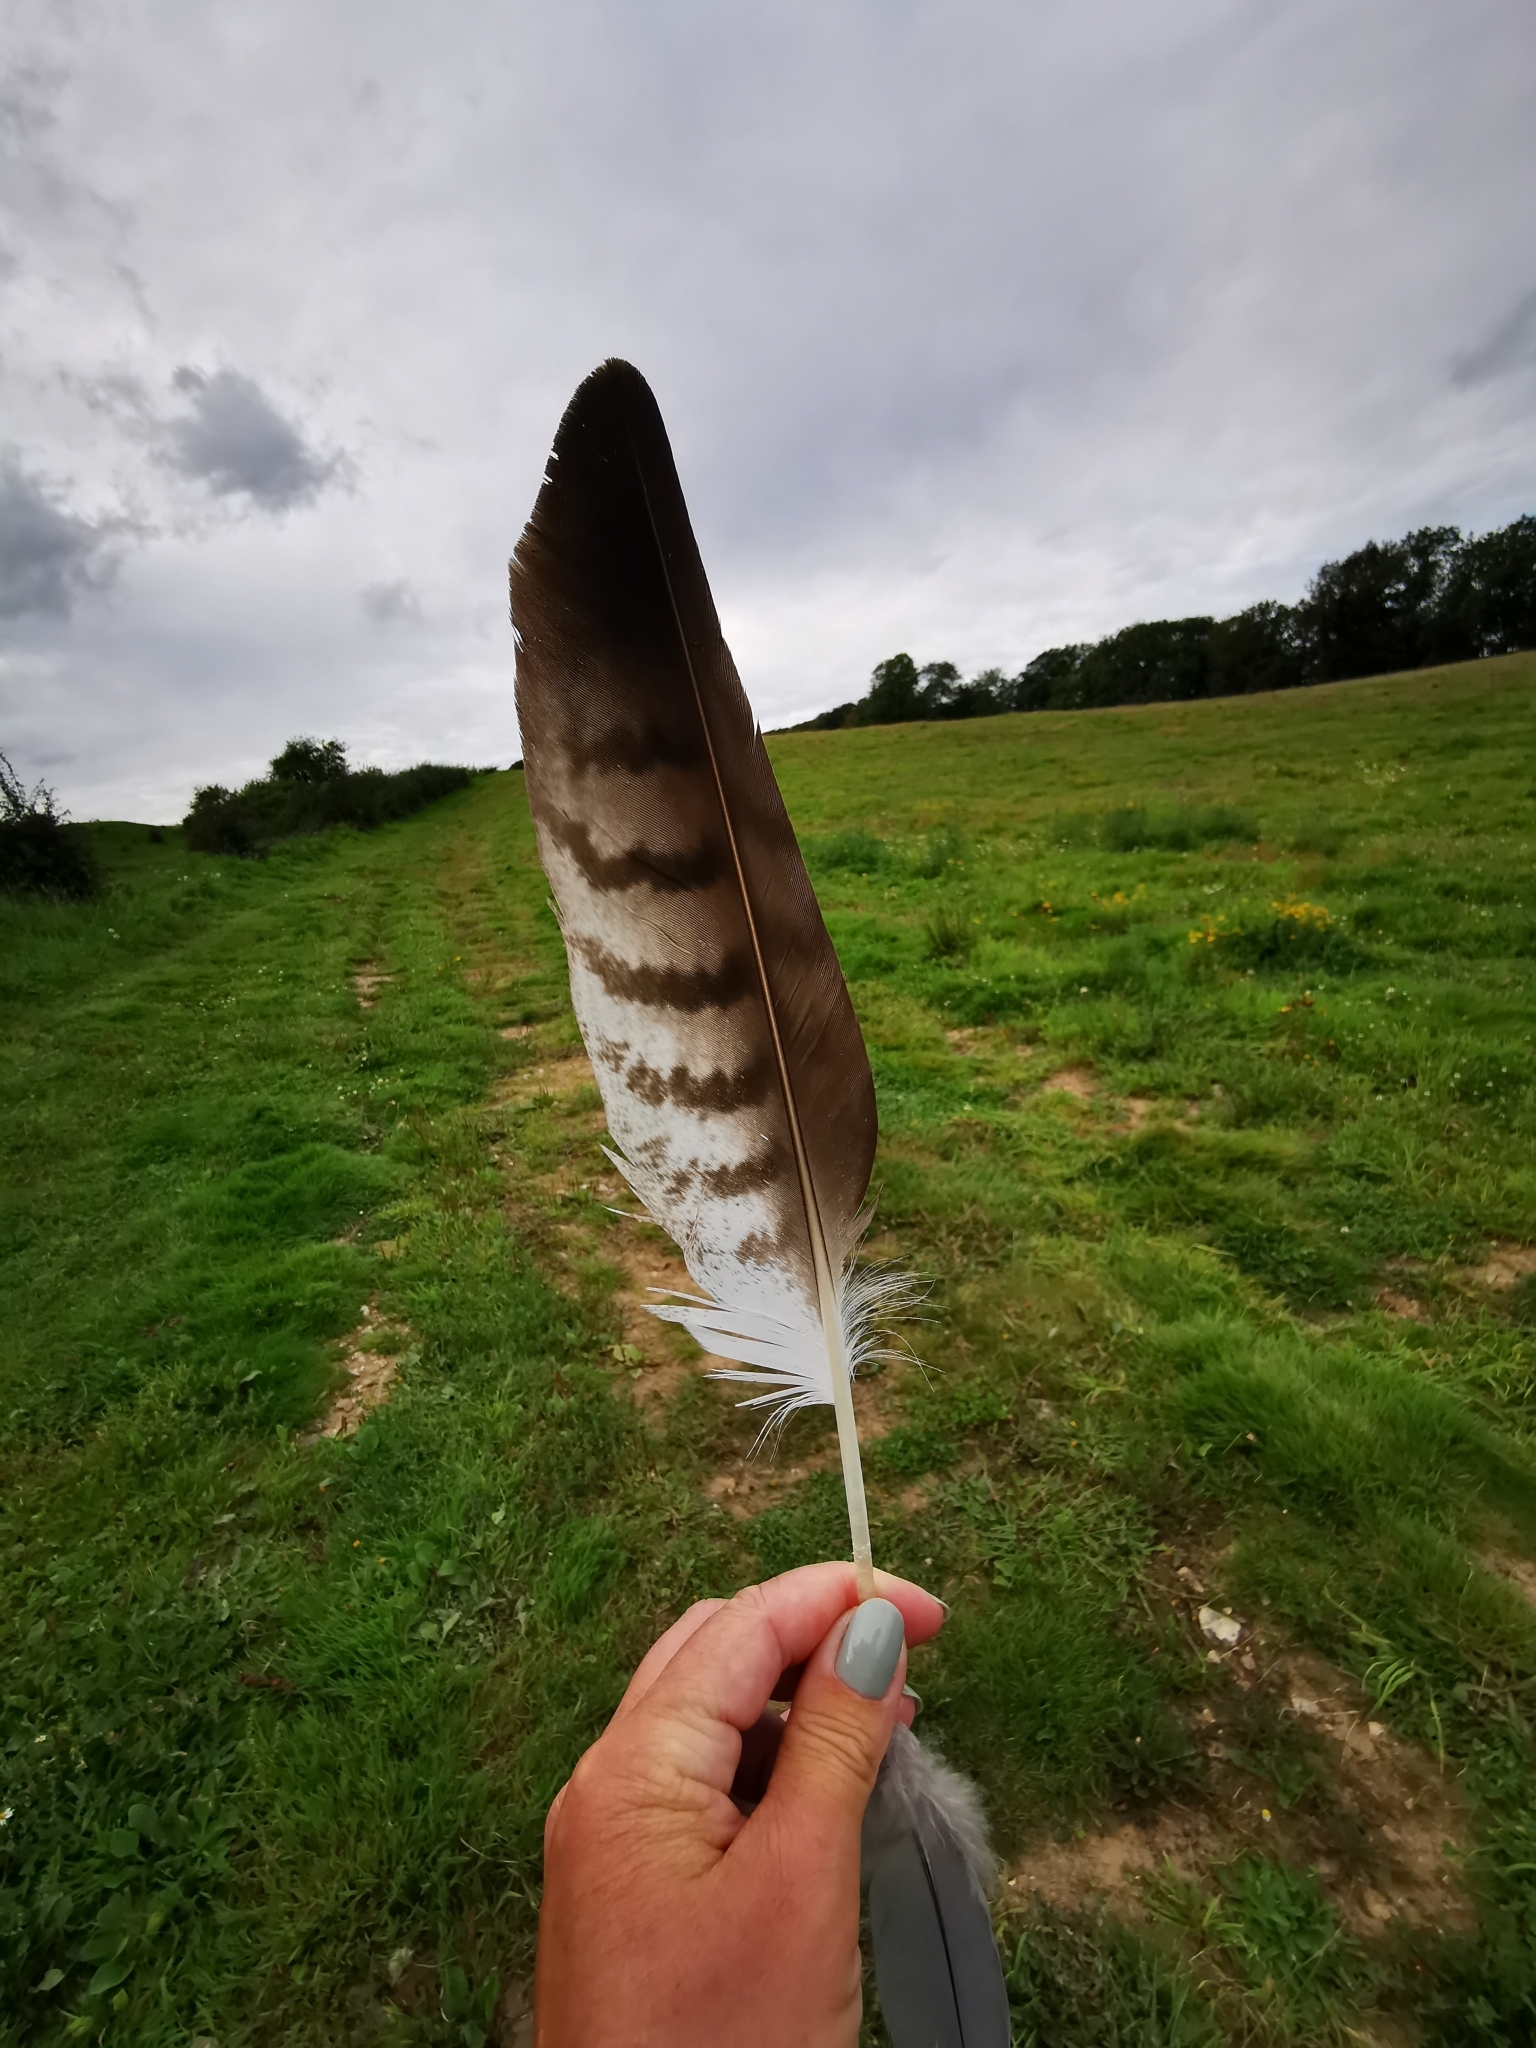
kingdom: Animalia
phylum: Chordata
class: Aves
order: Accipitriformes
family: Accipitridae
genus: Buteo
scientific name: Buteo buteo
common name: Common buzzard
